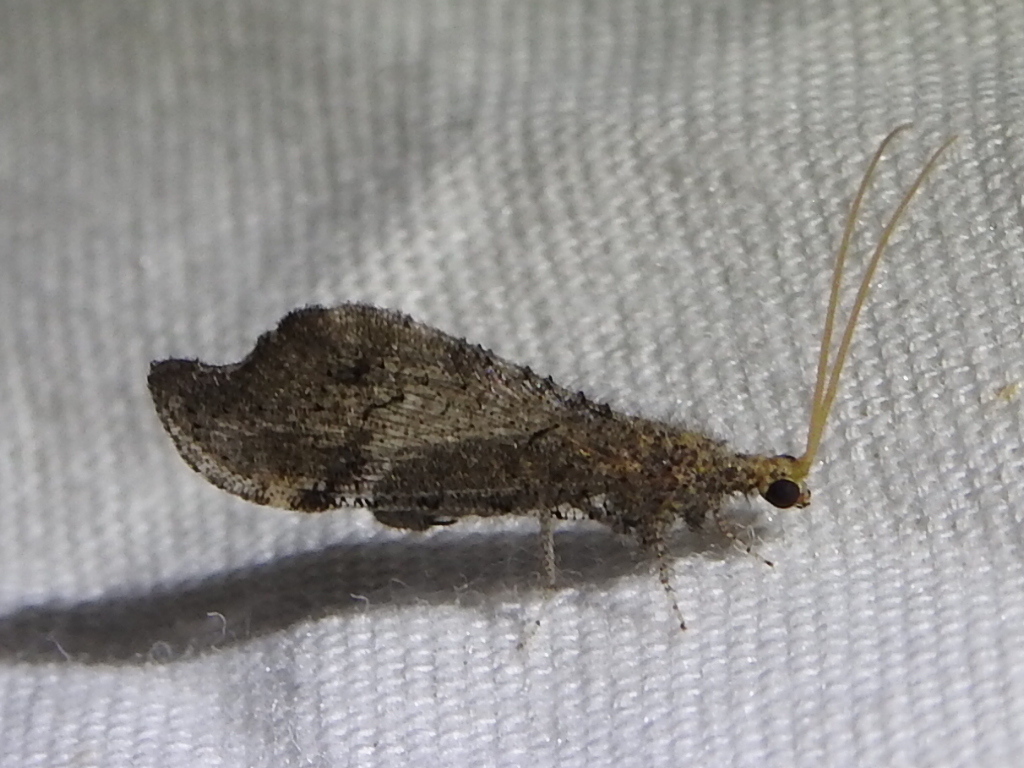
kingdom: Animalia
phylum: Arthropoda
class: Insecta
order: Neuroptera
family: Berothidae
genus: Lomamyia
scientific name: Lomamyia
